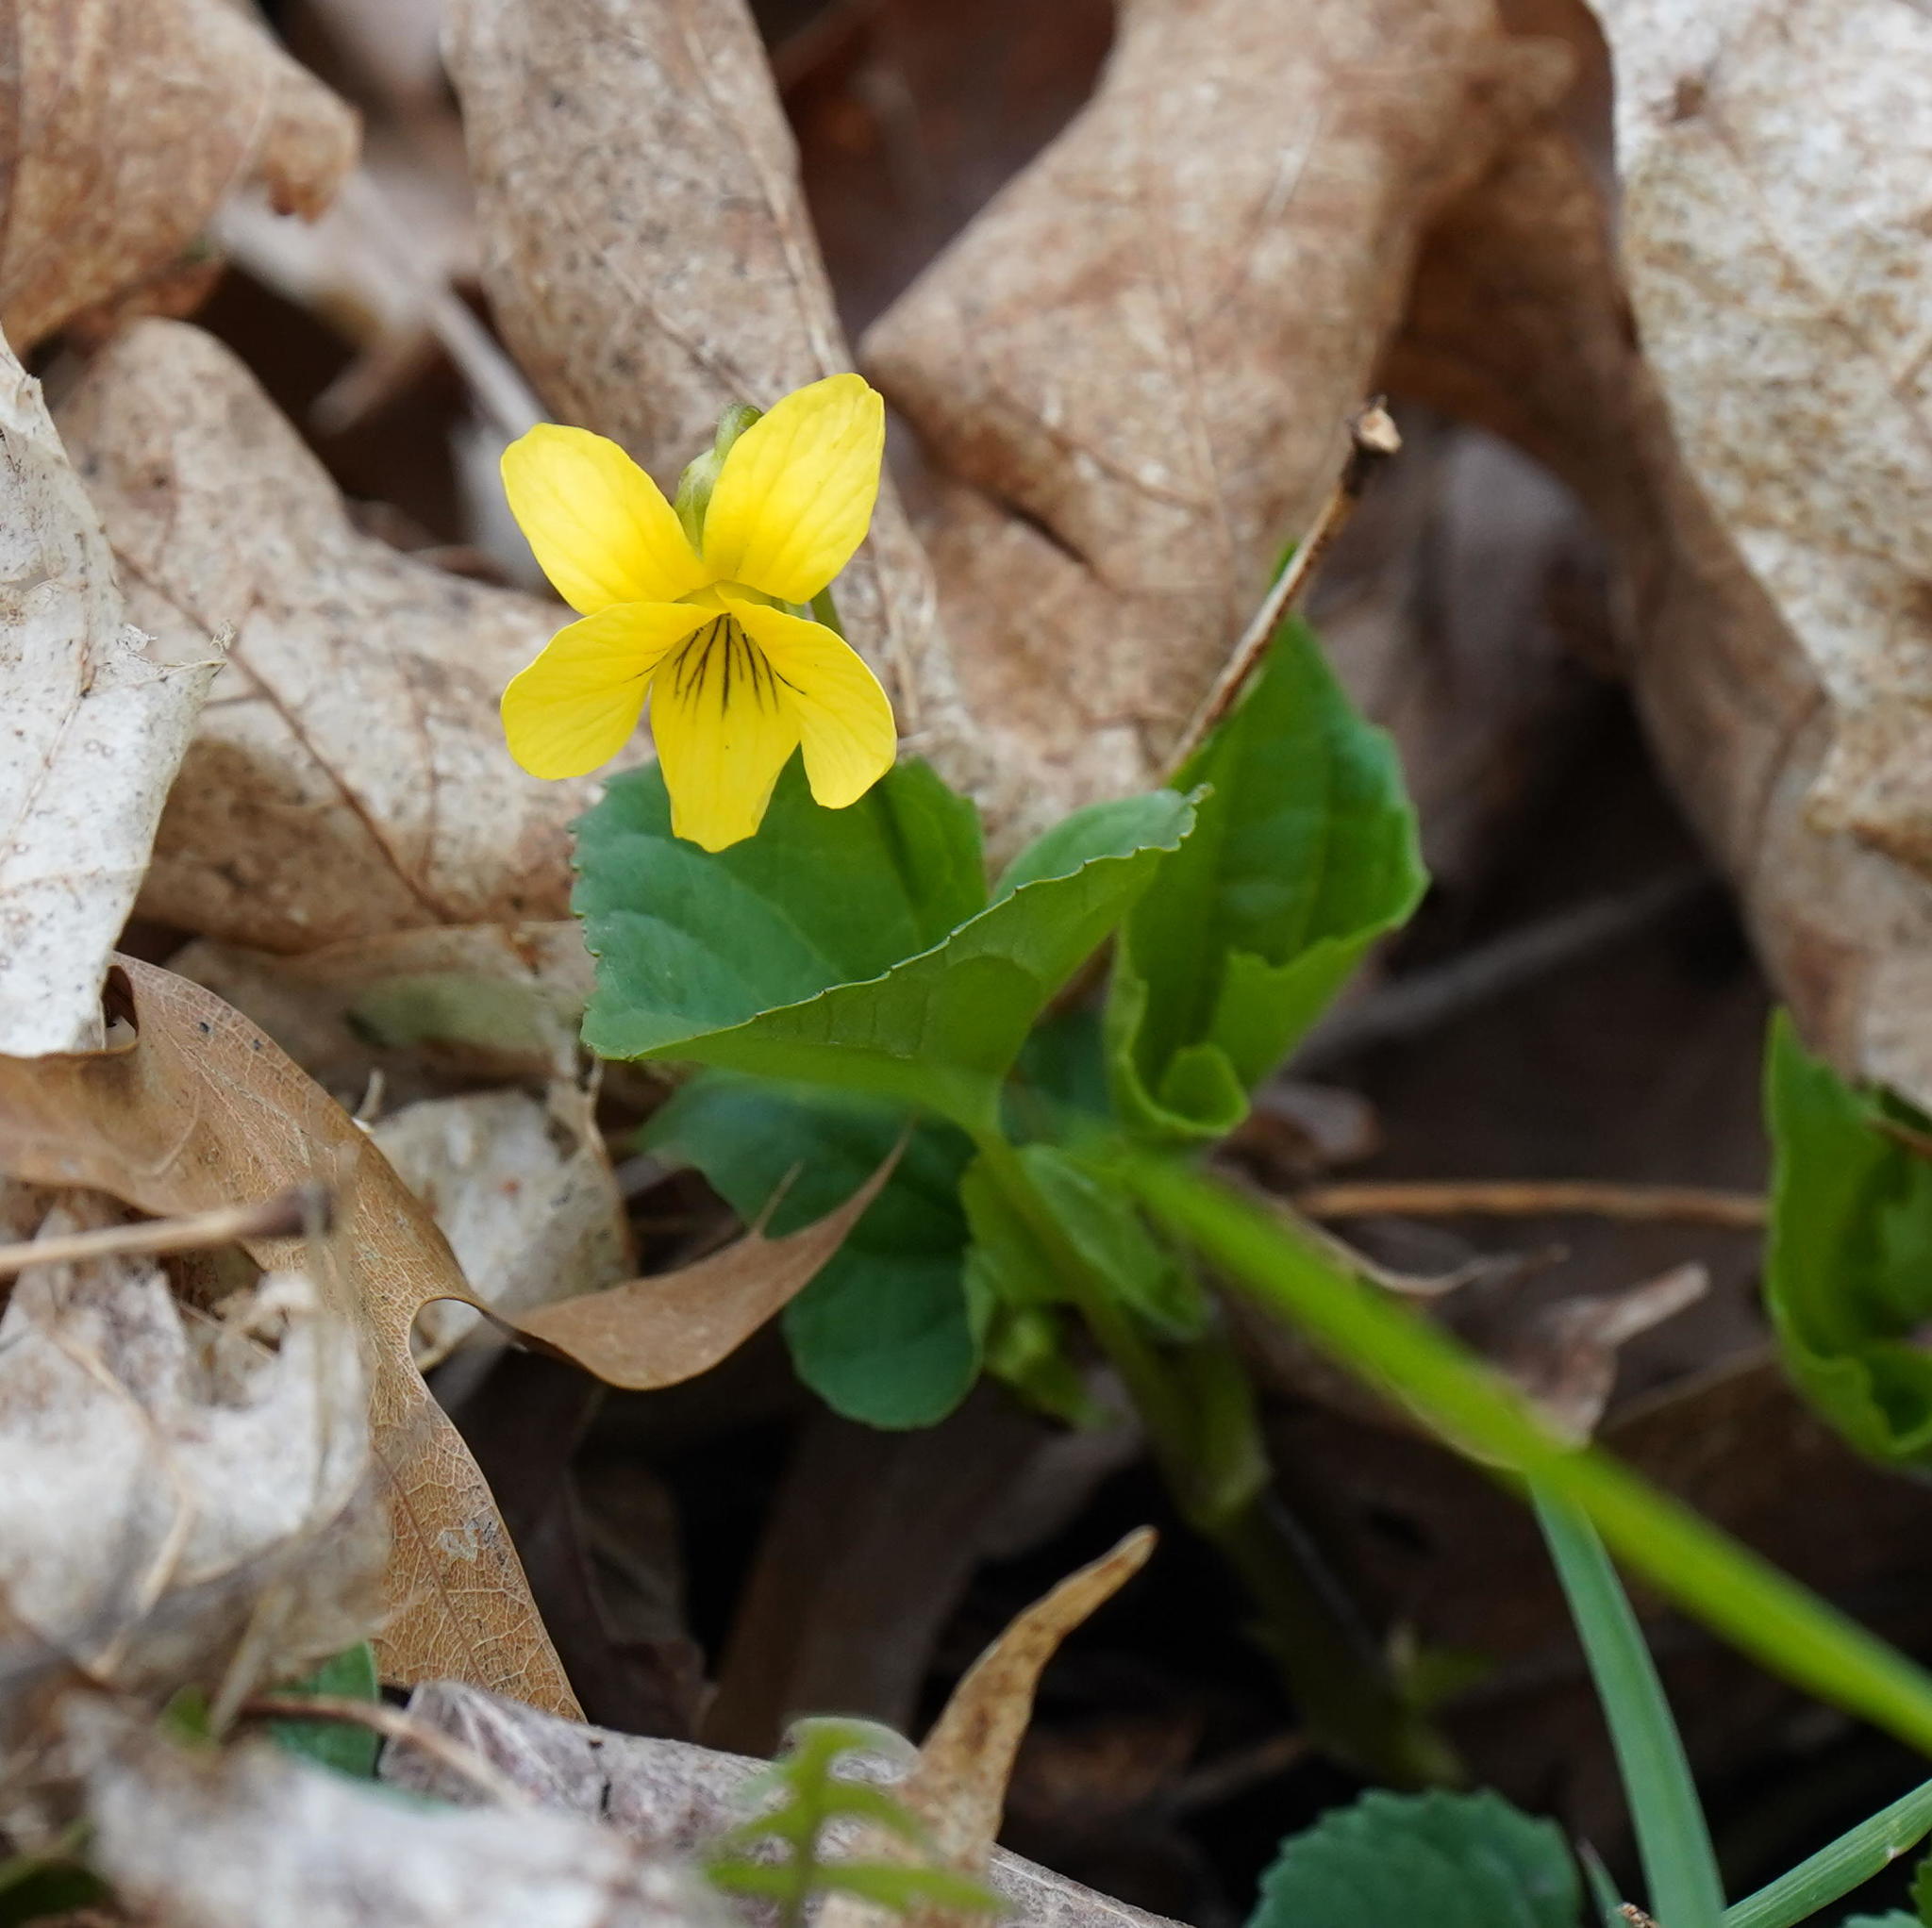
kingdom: Plantae
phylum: Tracheophyta
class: Magnoliopsida
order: Malpighiales
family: Violaceae
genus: Viola
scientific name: Viola eriocarpa
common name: Smooth yellow violet
